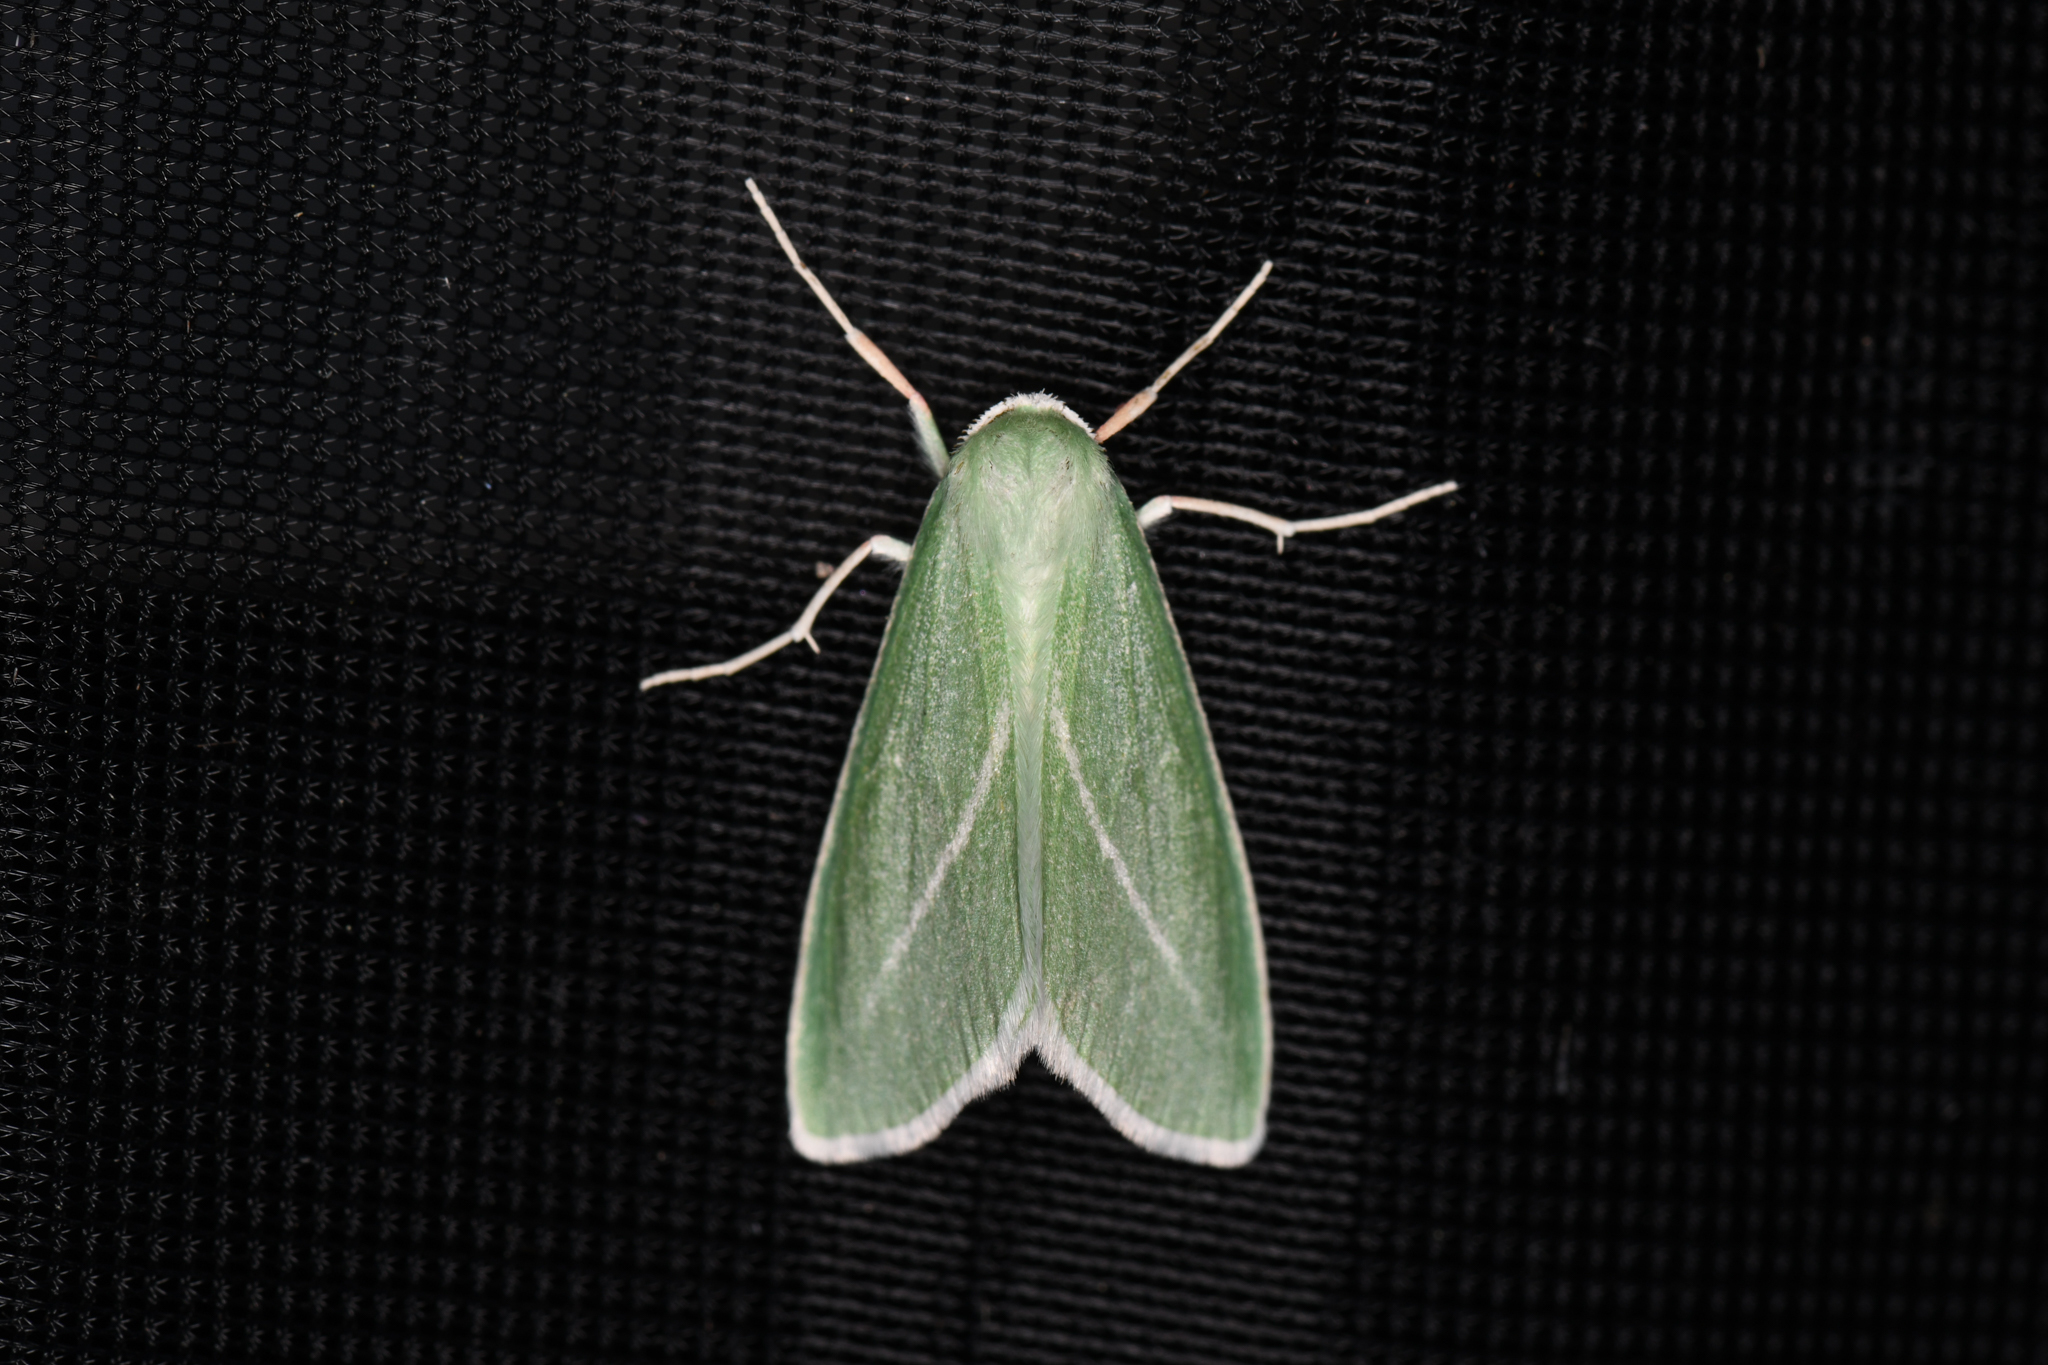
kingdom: Animalia
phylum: Arthropoda
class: Insecta
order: Lepidoptera
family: Geometridae
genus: Chlorosea
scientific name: Chlorosea margaretaria
